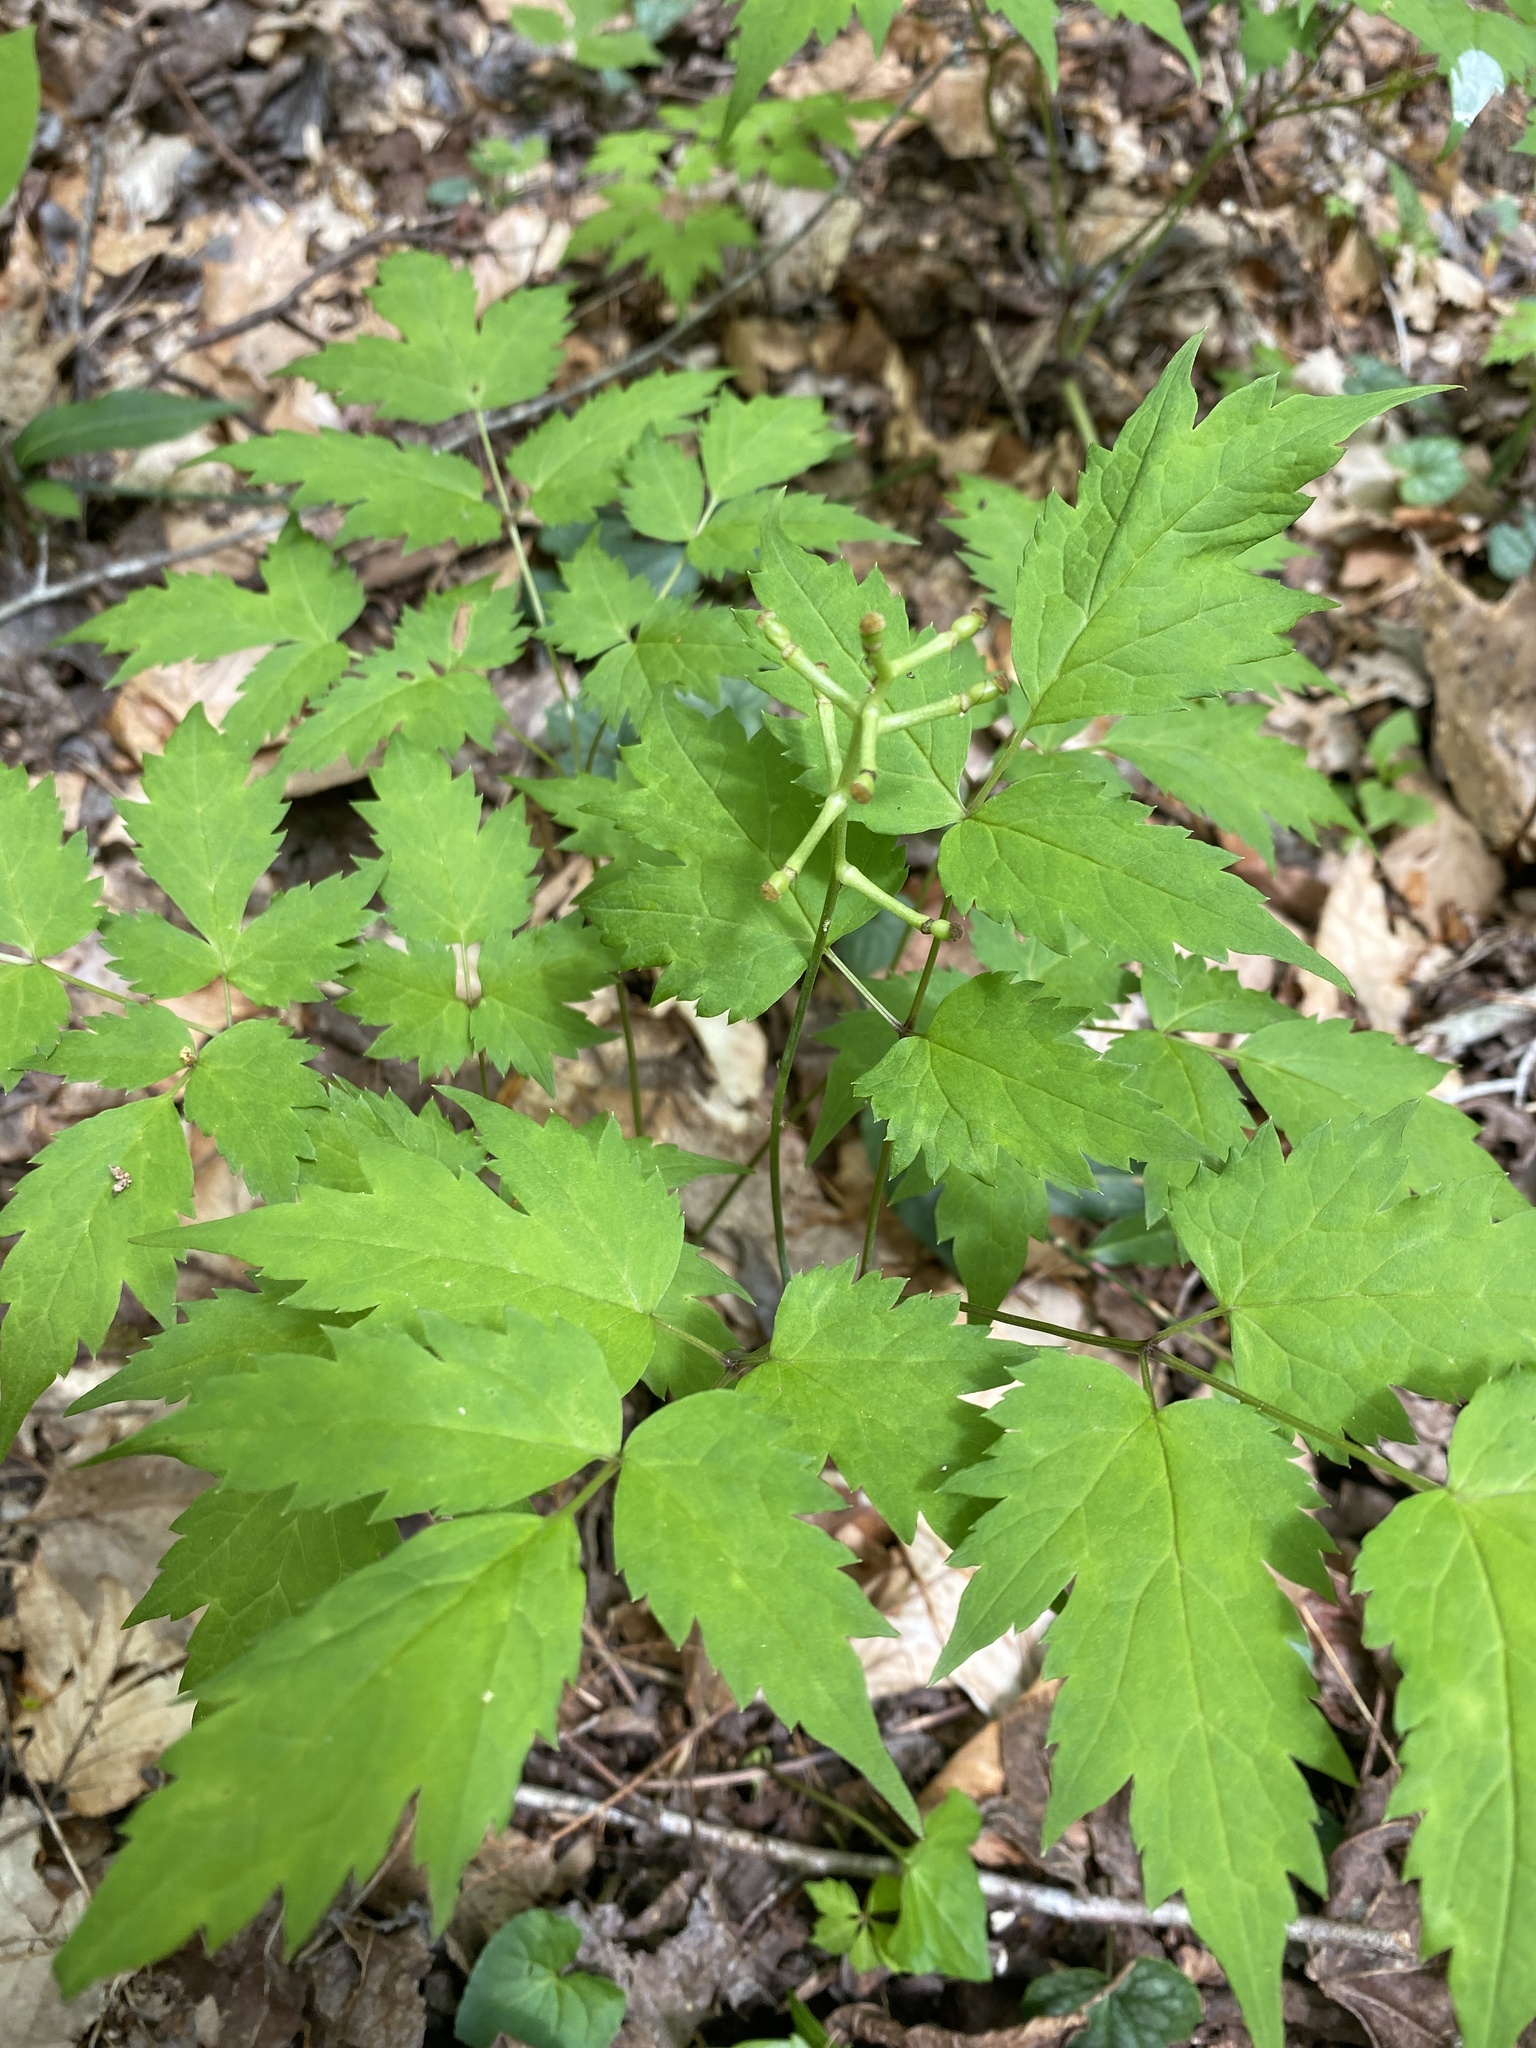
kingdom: Plantae
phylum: Tracheophyta
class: Magnoliopsida
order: Ranunculales
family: Ranunculaceae
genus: Actaea
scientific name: Actaea pachypoda
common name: Doll's-eyes
